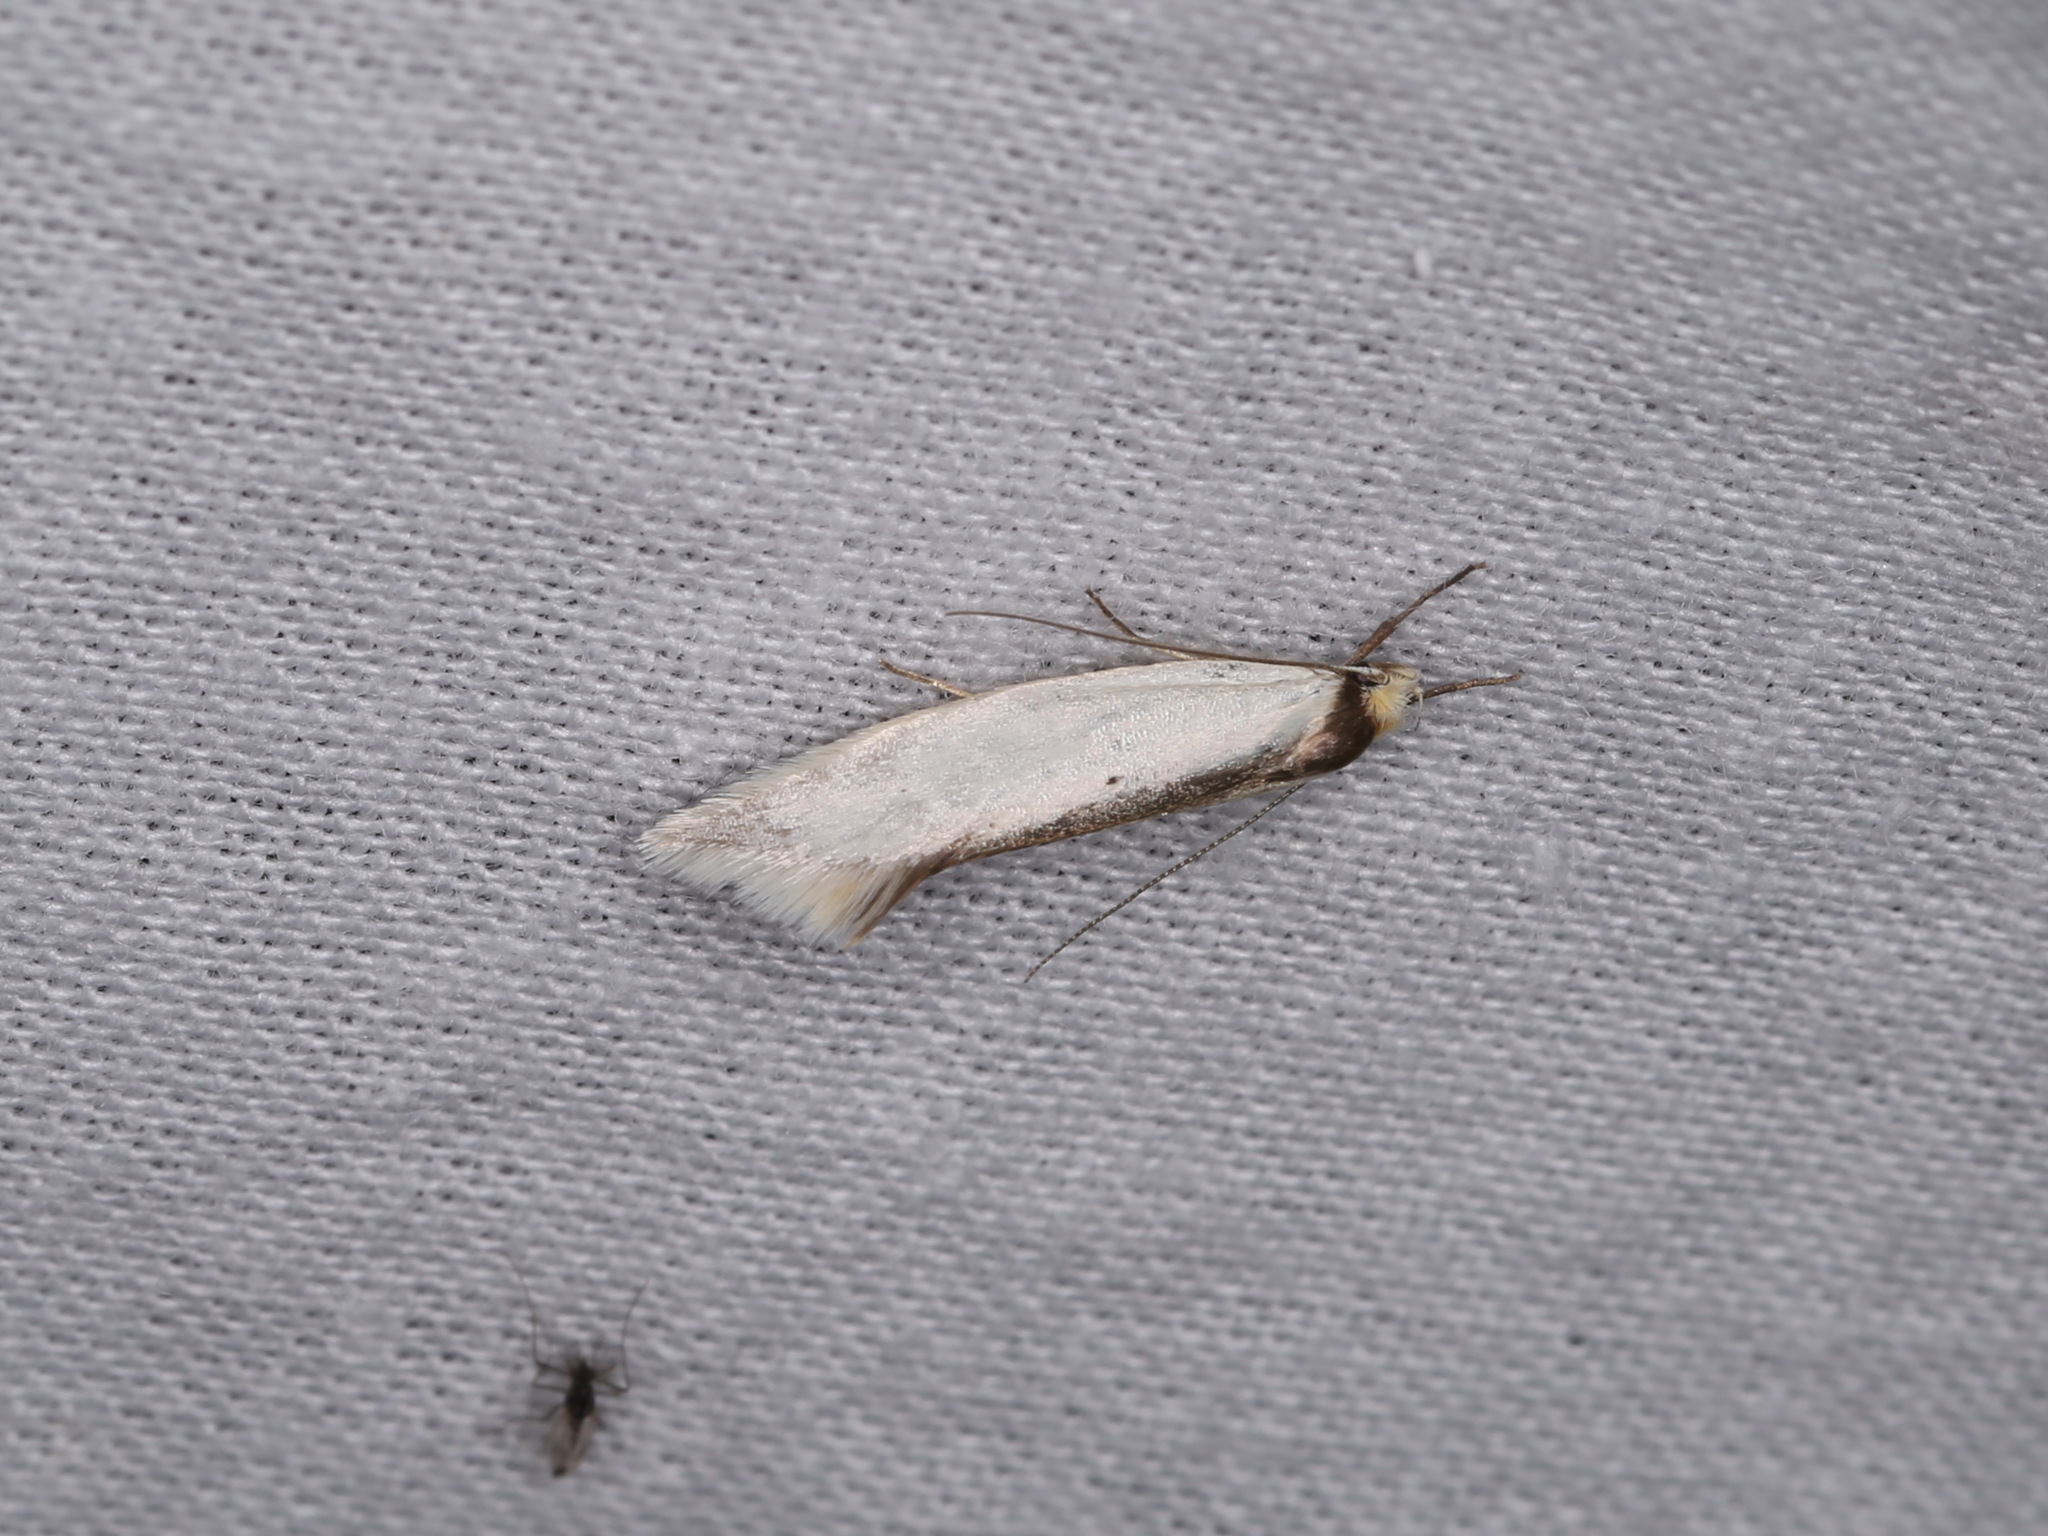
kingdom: Animalia
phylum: Arthropoda
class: Insecta
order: Lepidoptera
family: Oecophoridae
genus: Ocystola
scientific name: Ocystola chionea
